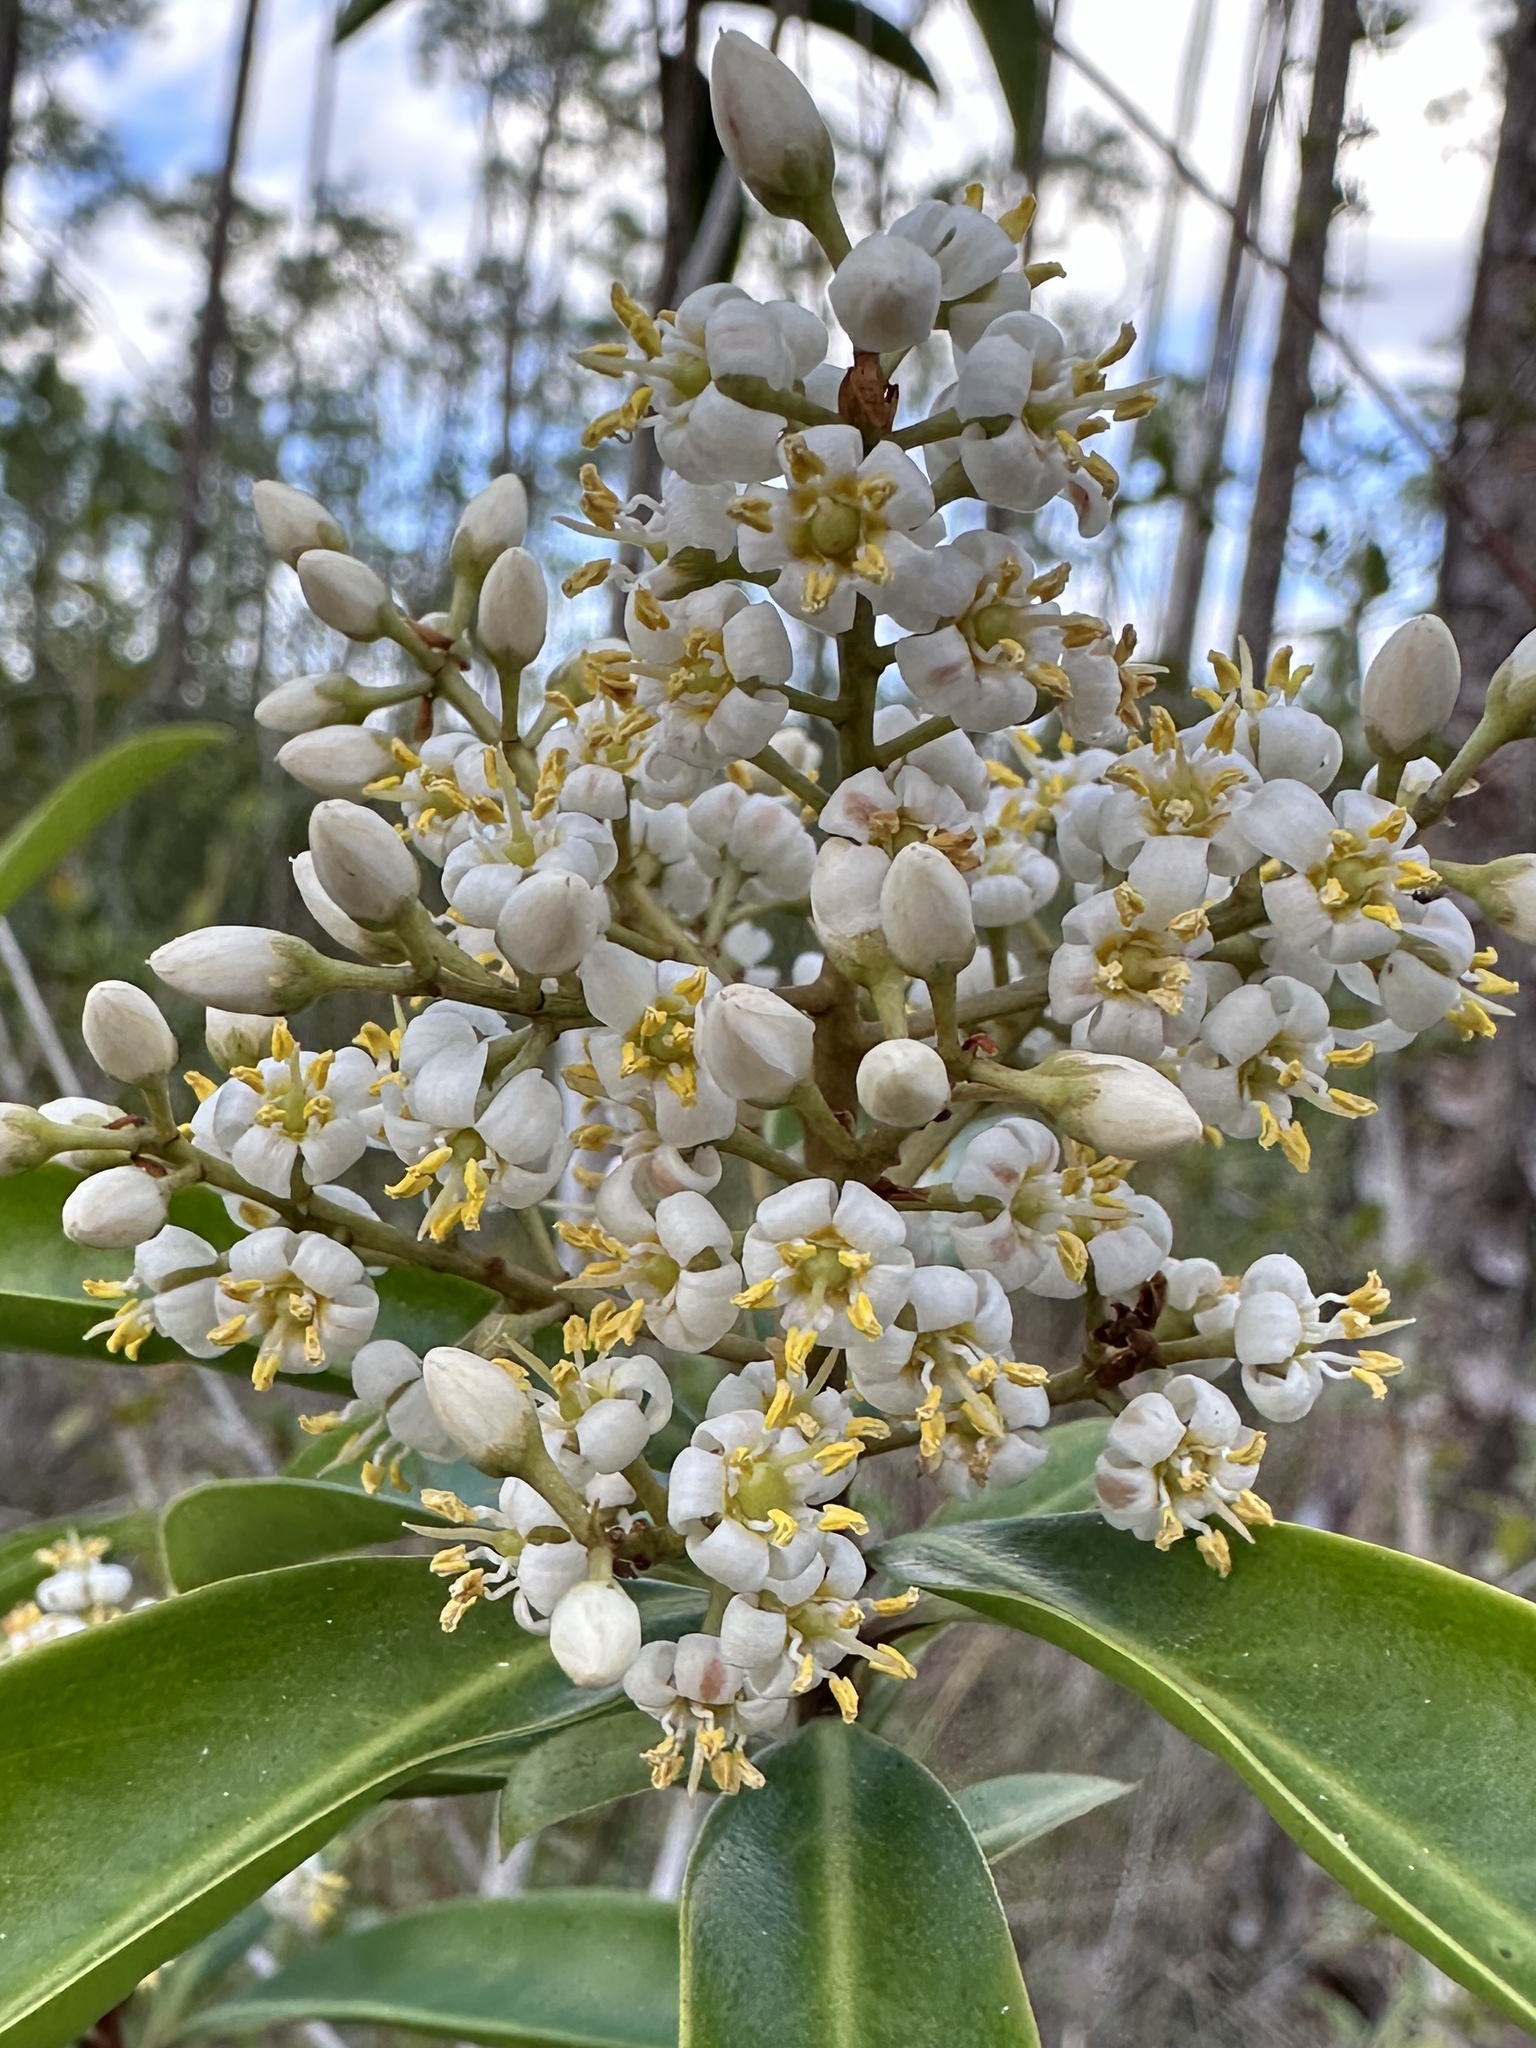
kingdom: Plantae
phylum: Tracheophyta
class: Magnoliopsida
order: Ericales
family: Primulaceae
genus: Ardisia
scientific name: Ardisia escallonioides
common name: Island marlberry
